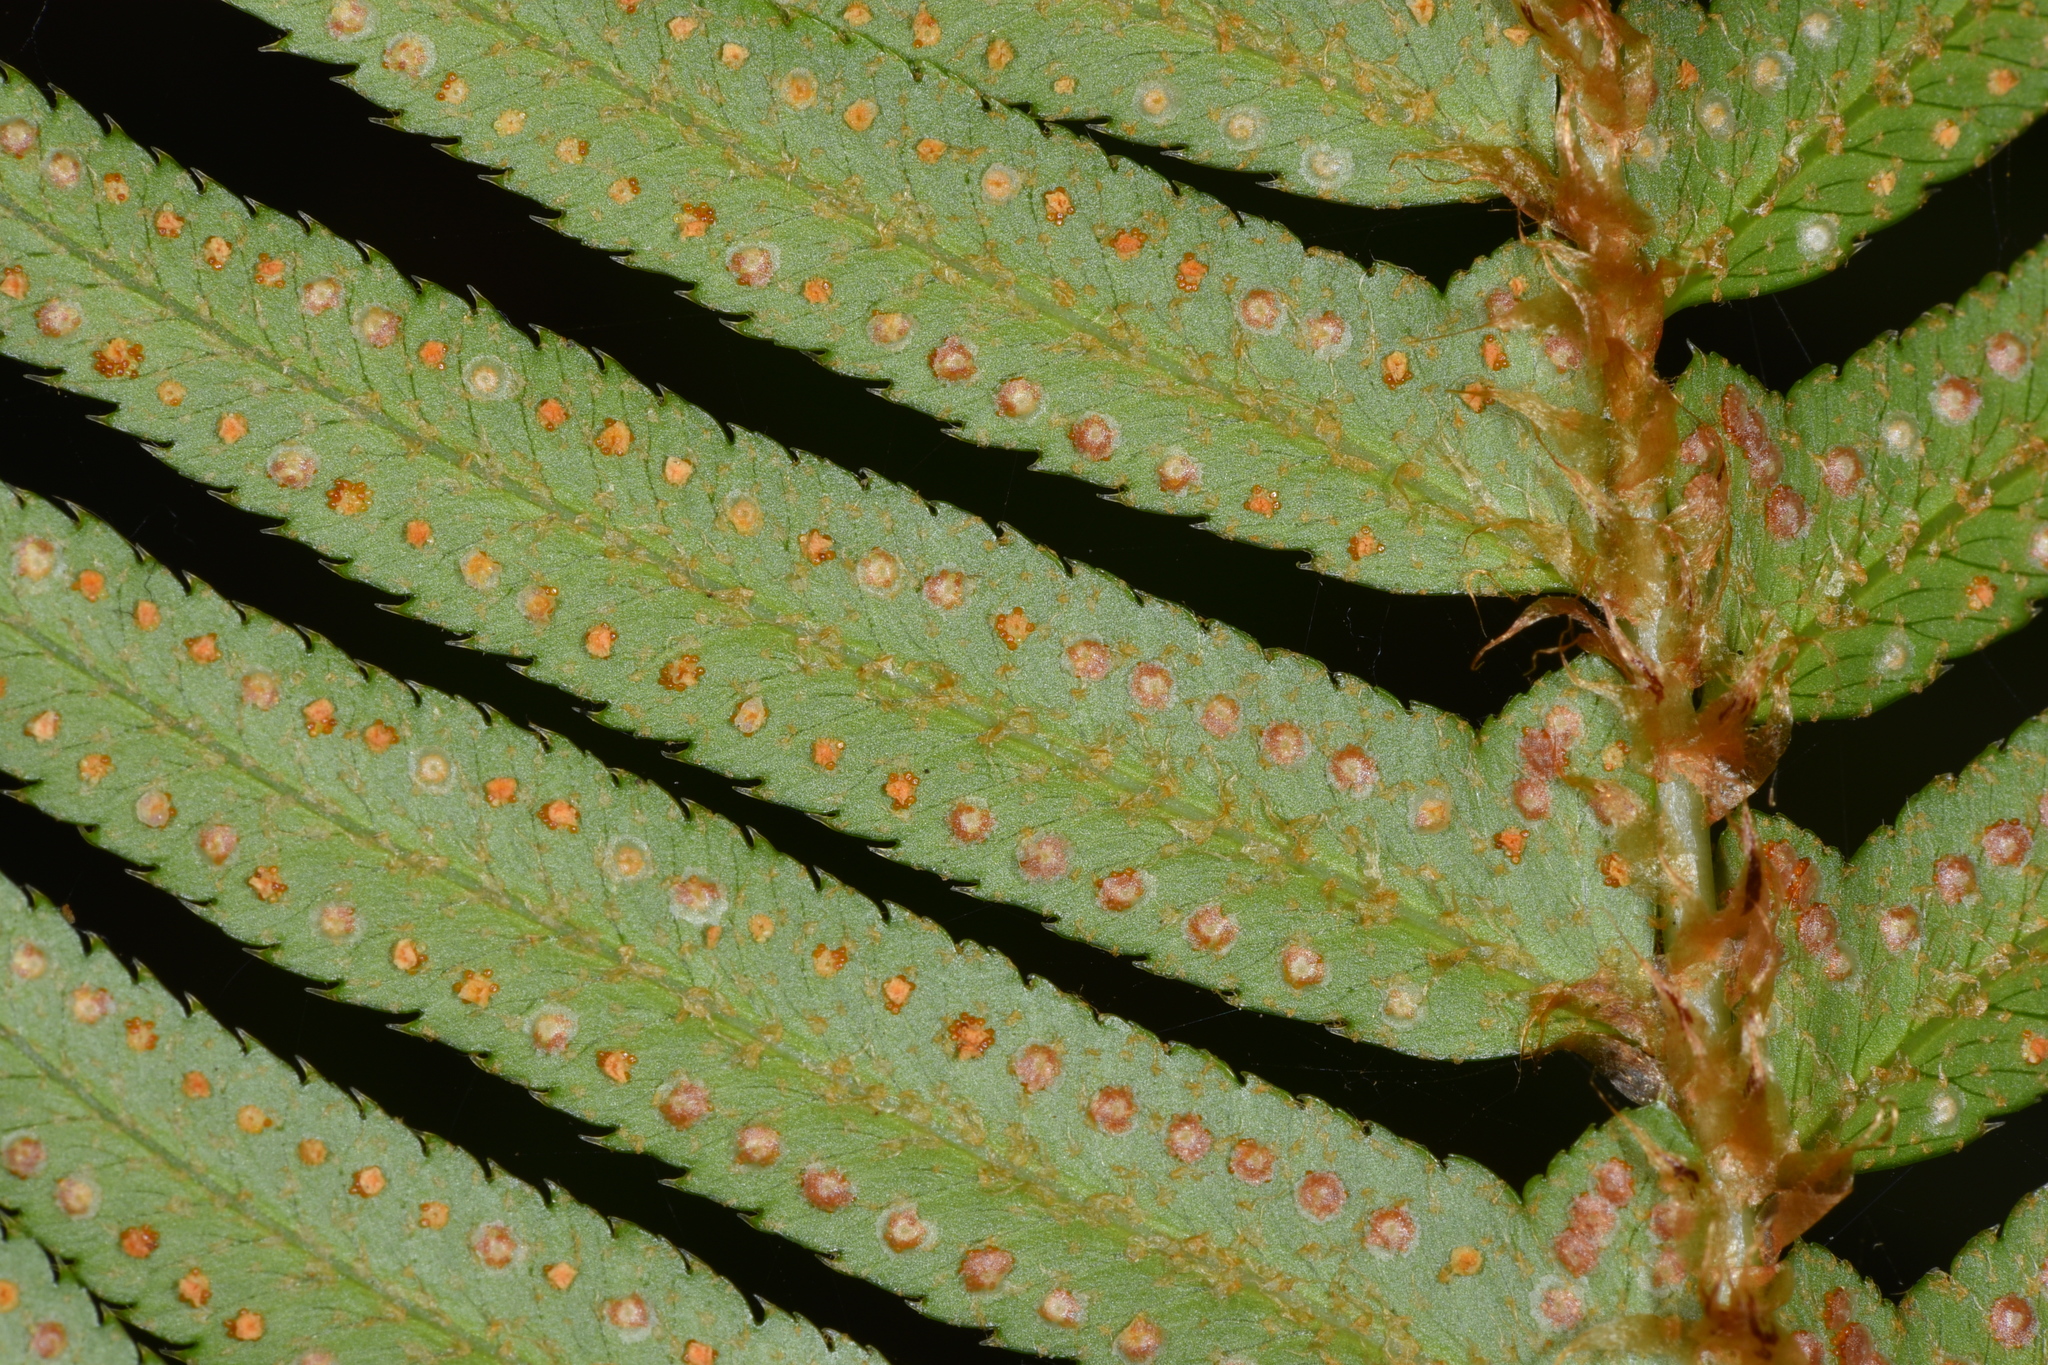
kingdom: Plantae
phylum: Tracheophyta
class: Polypodiopsida
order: Polypodiales
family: Dryopteridaceae
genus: Polystichum
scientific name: Polystichum munitum
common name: Western sword-fern
